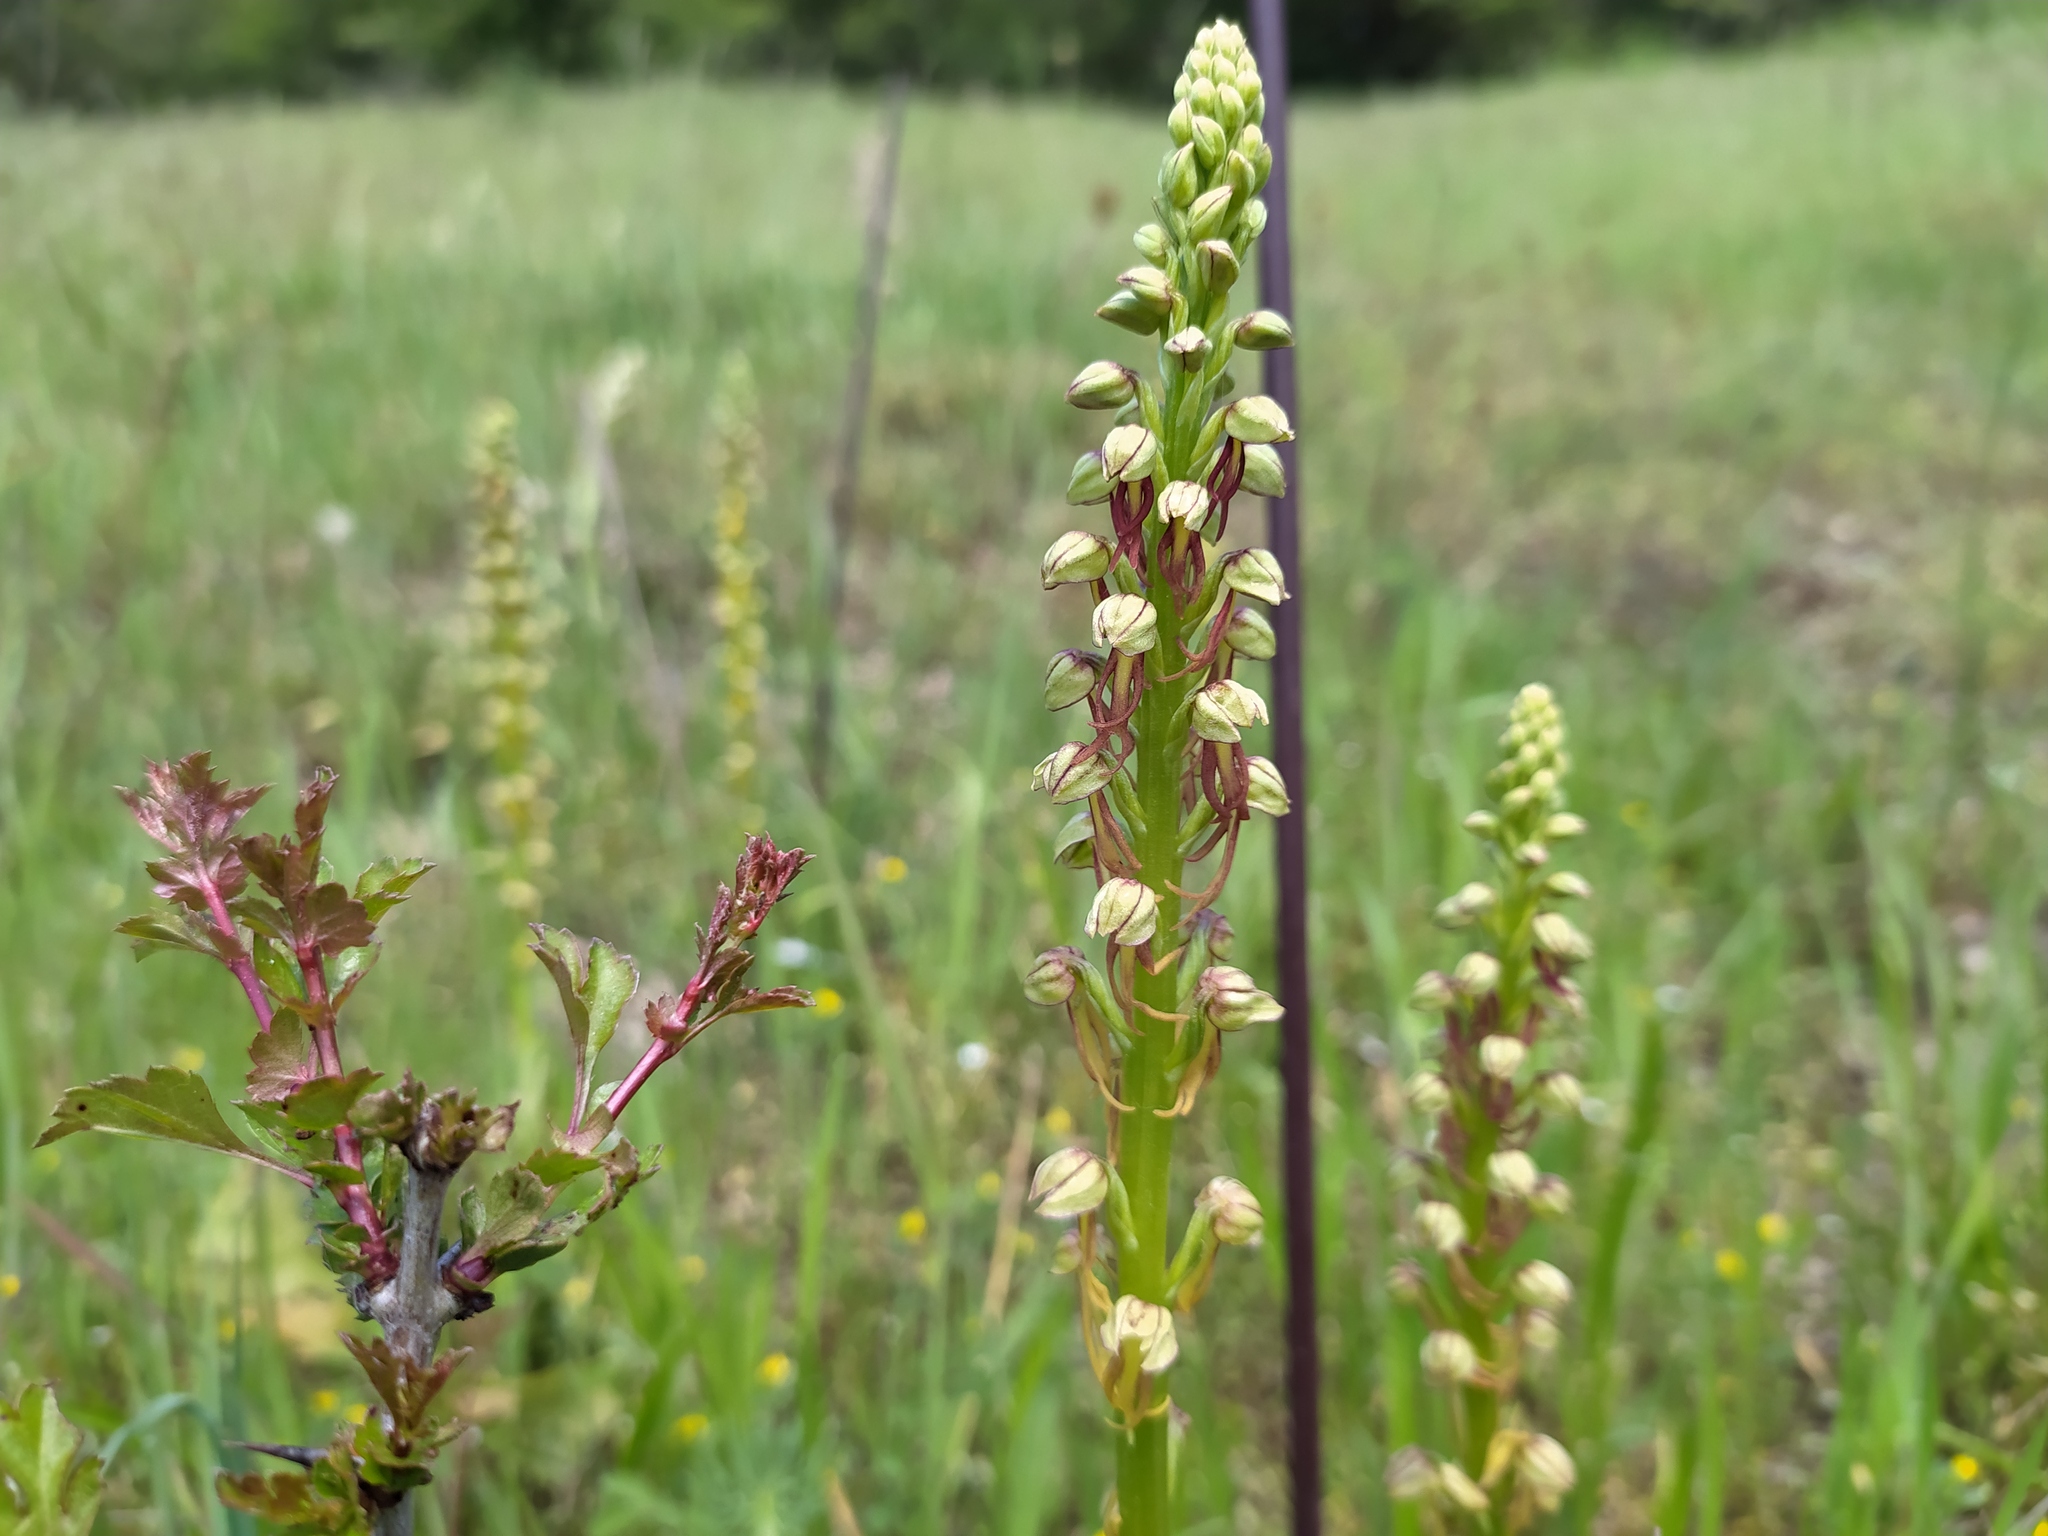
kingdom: Plantae
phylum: Tracheophyta
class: Liliopsida
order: Asparagales
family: Orchidaceae
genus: Orchis
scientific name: Orchis anthropophora
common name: Man orchid
